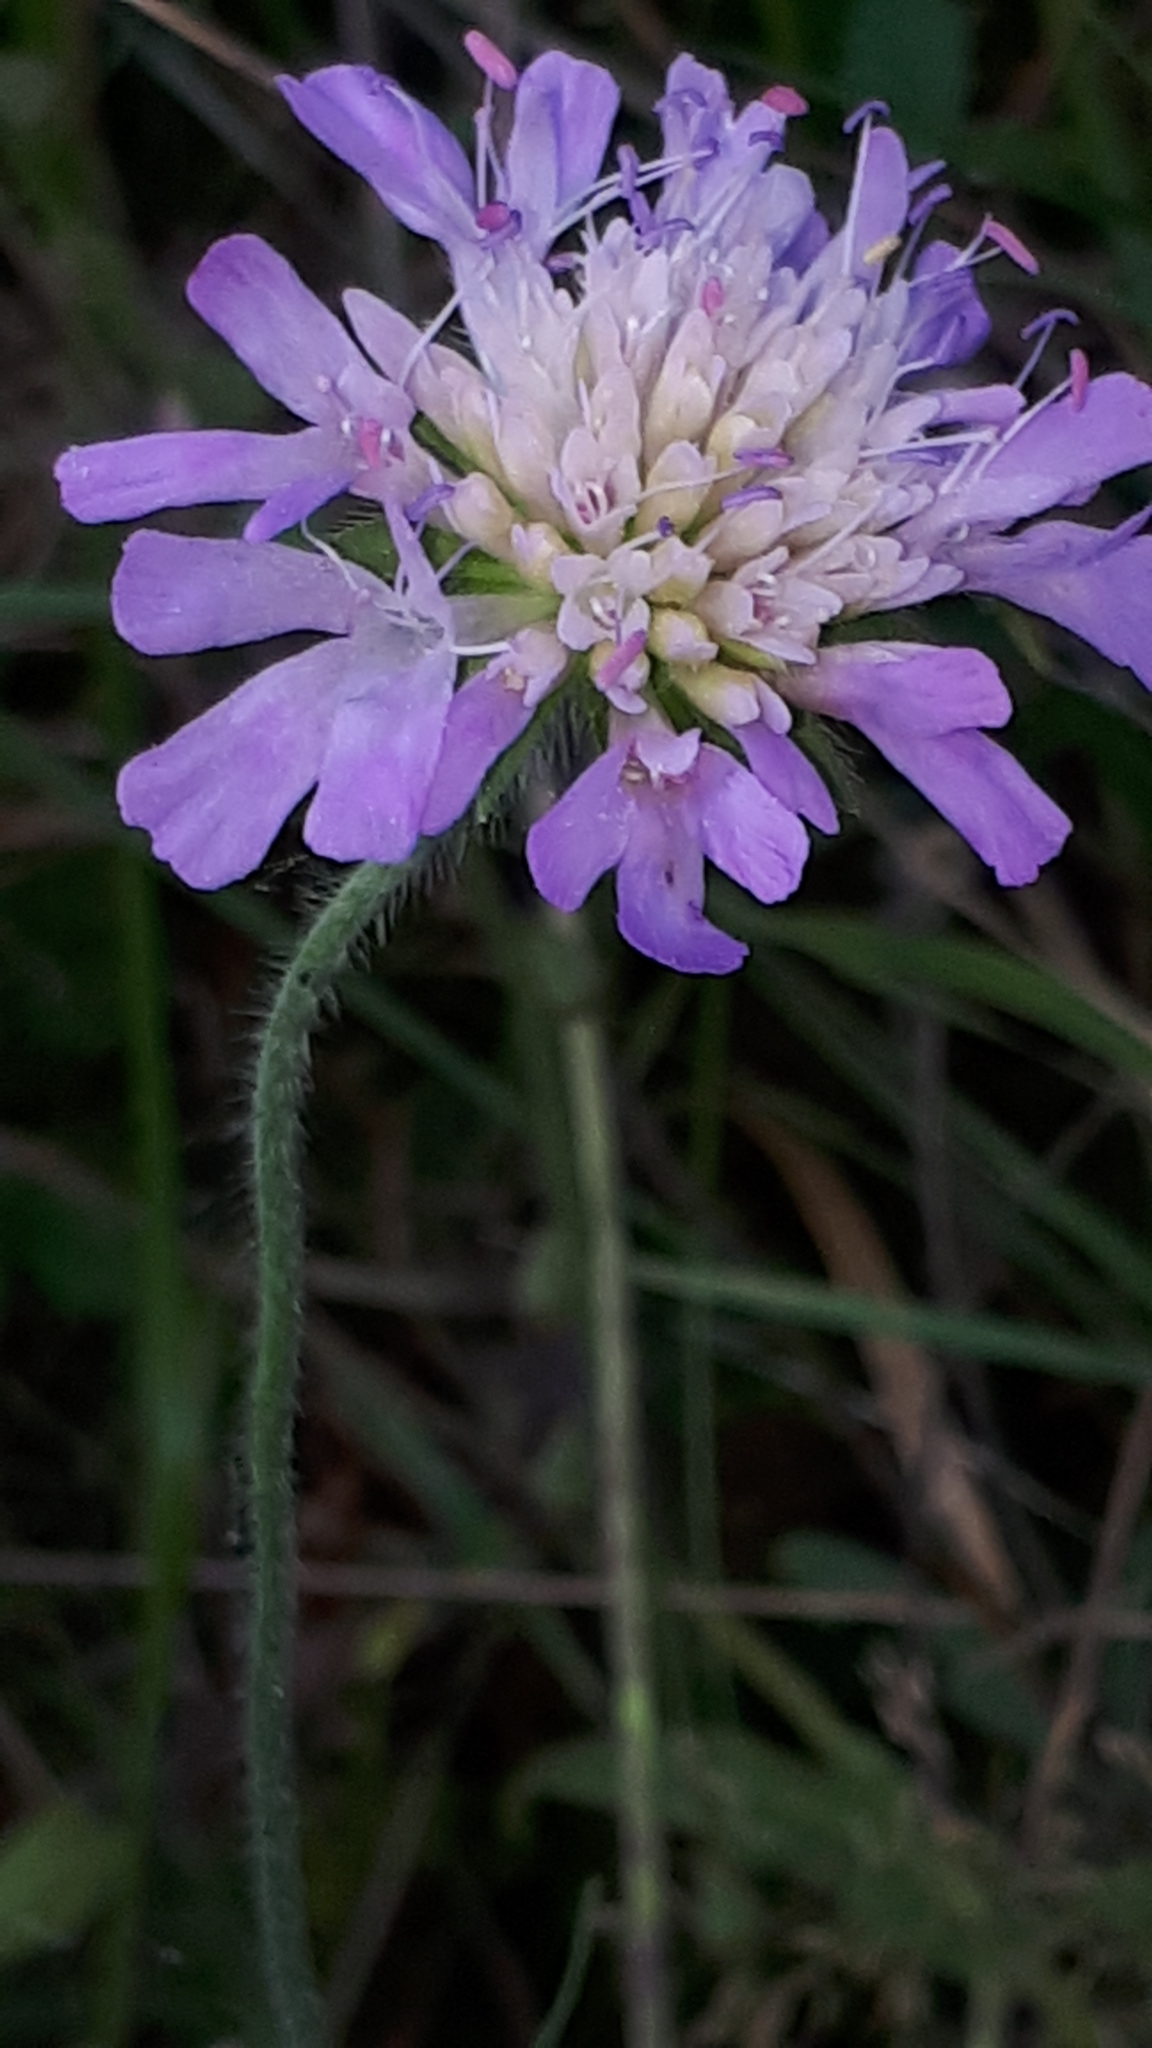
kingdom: Plantae
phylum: Tracheophyta
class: Magnoliopsida
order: Dipsacales
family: Caprifoliaceae
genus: Knautia
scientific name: Knautia arvensis
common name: Field scabiosa
